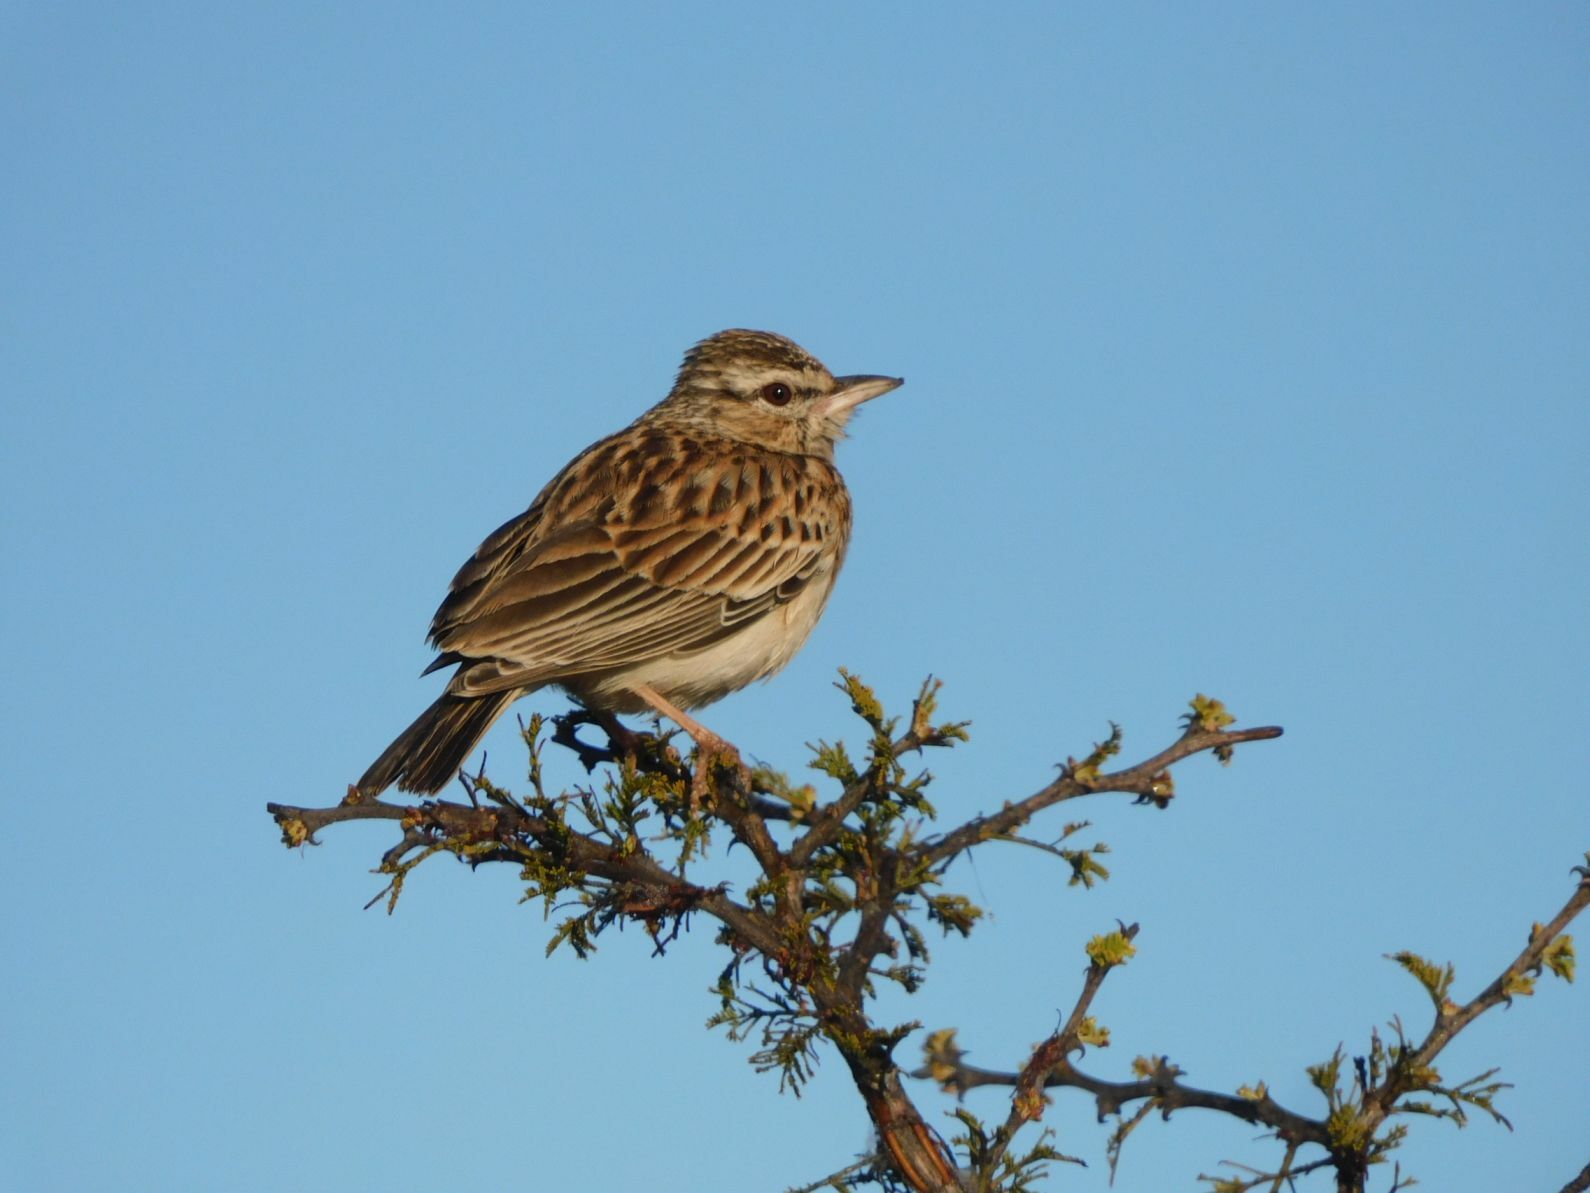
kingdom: Animalia
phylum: Chordata
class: Aves
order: Passeriformes
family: Alaudidae
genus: Calendulauda
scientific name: Calendulauda sabota
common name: Sabota lark
